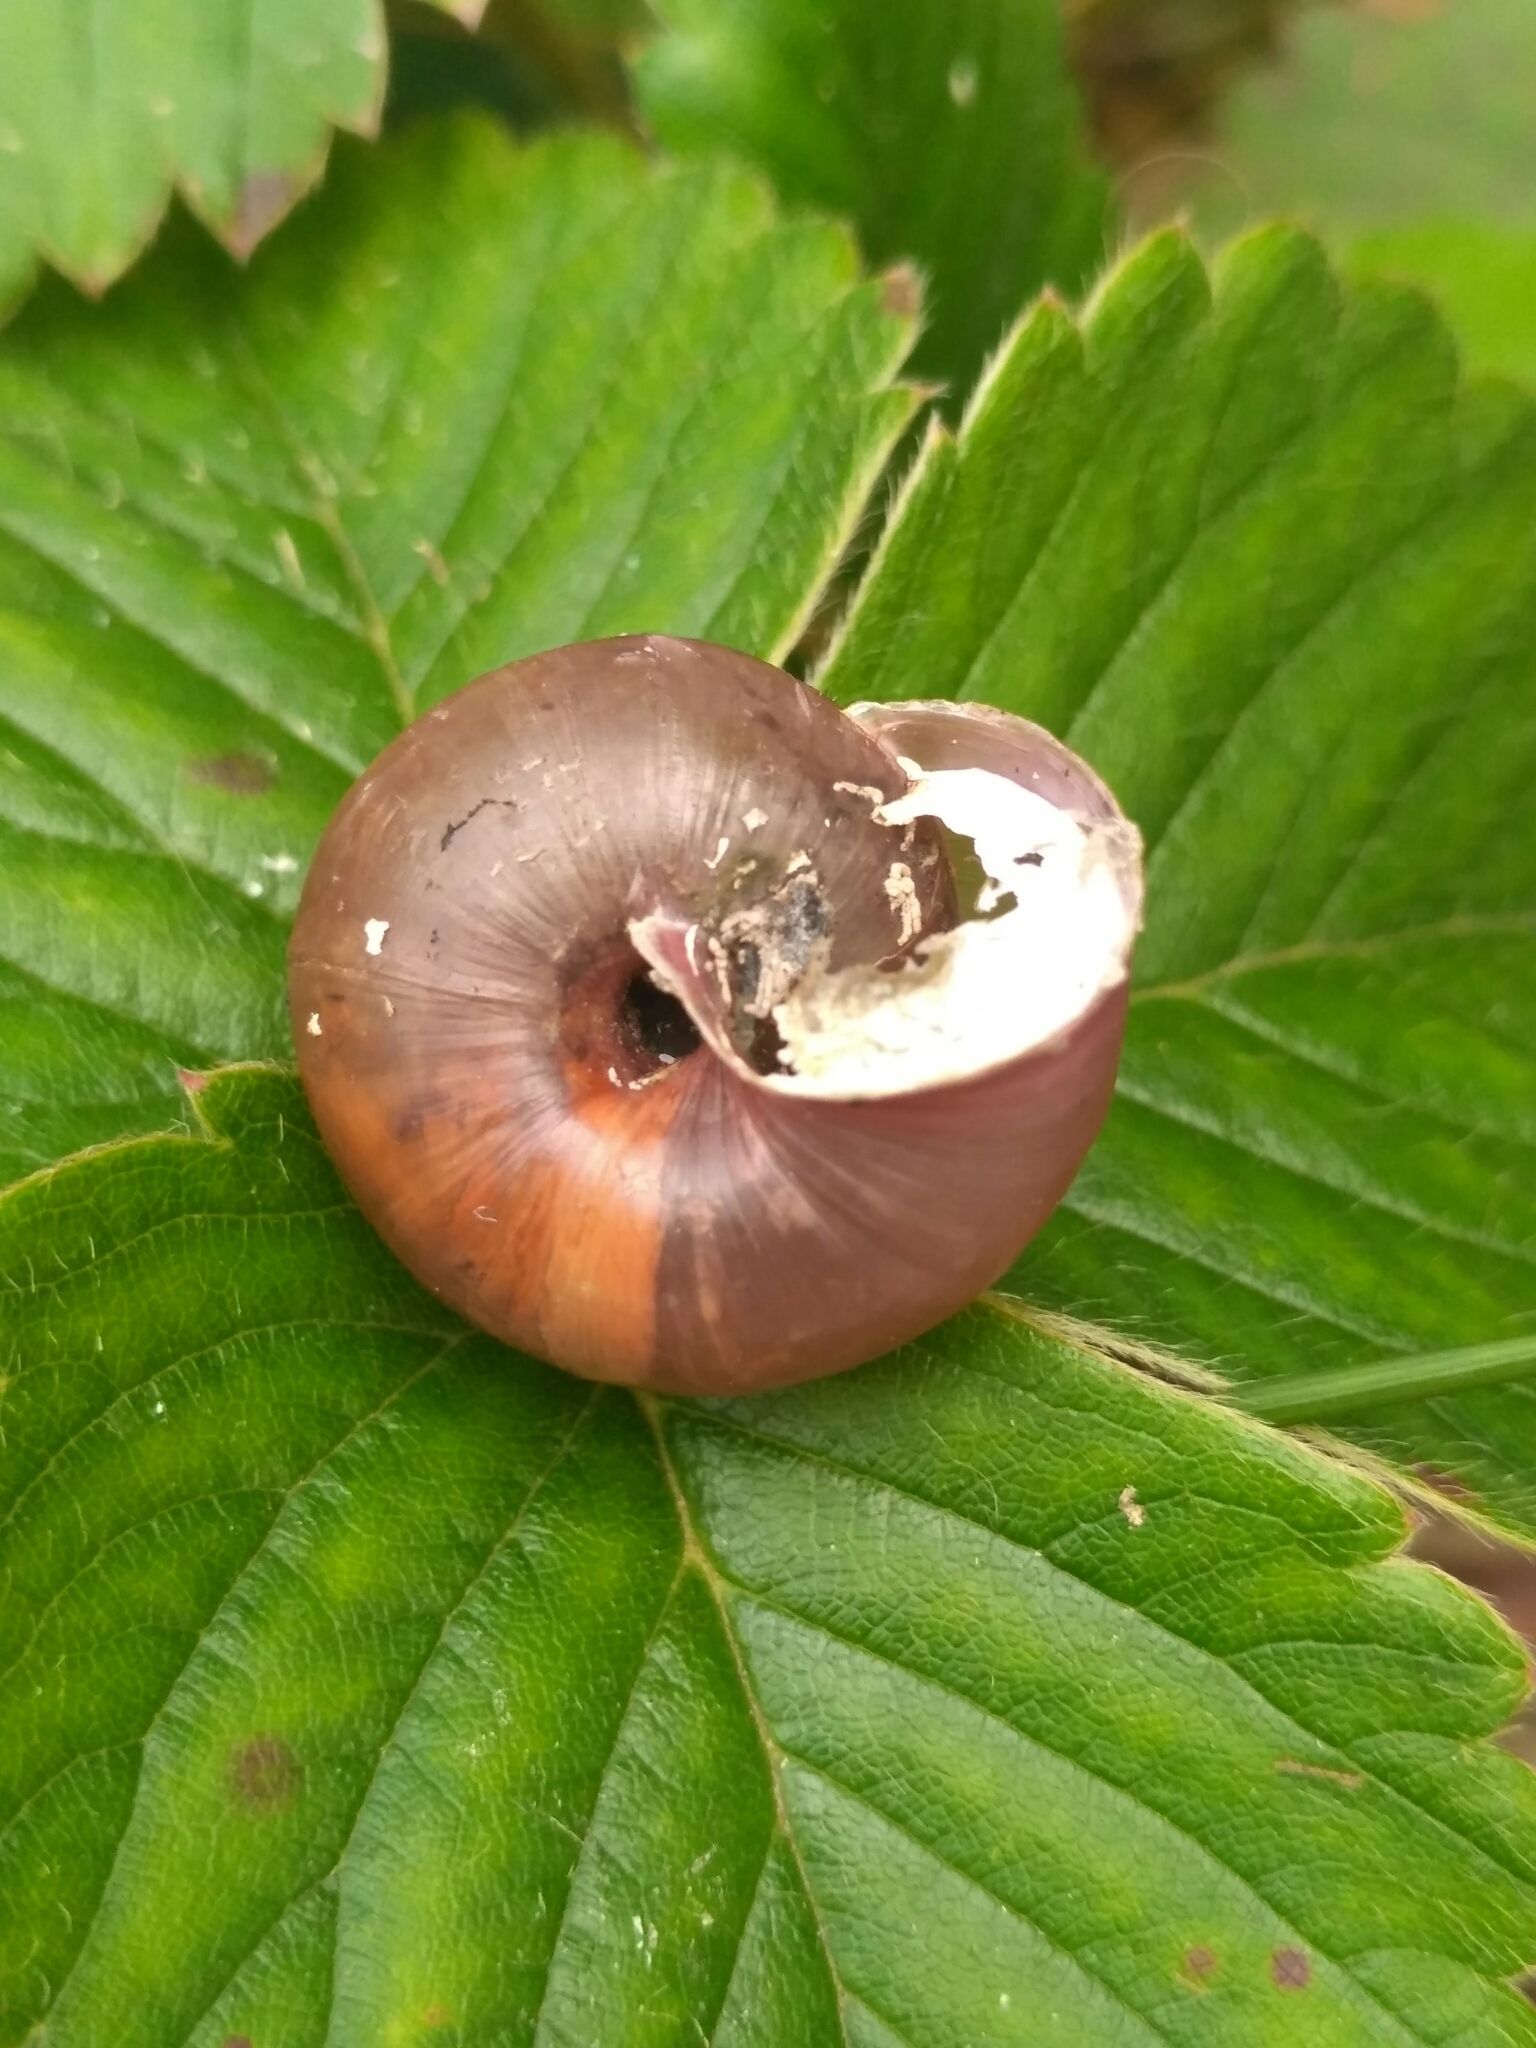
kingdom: Animalia
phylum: Mollusca
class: Gastropoda
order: Stylommatophora
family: Camaenidae
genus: Fruticicola
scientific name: Fruticicola fruticum
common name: Bush snail
